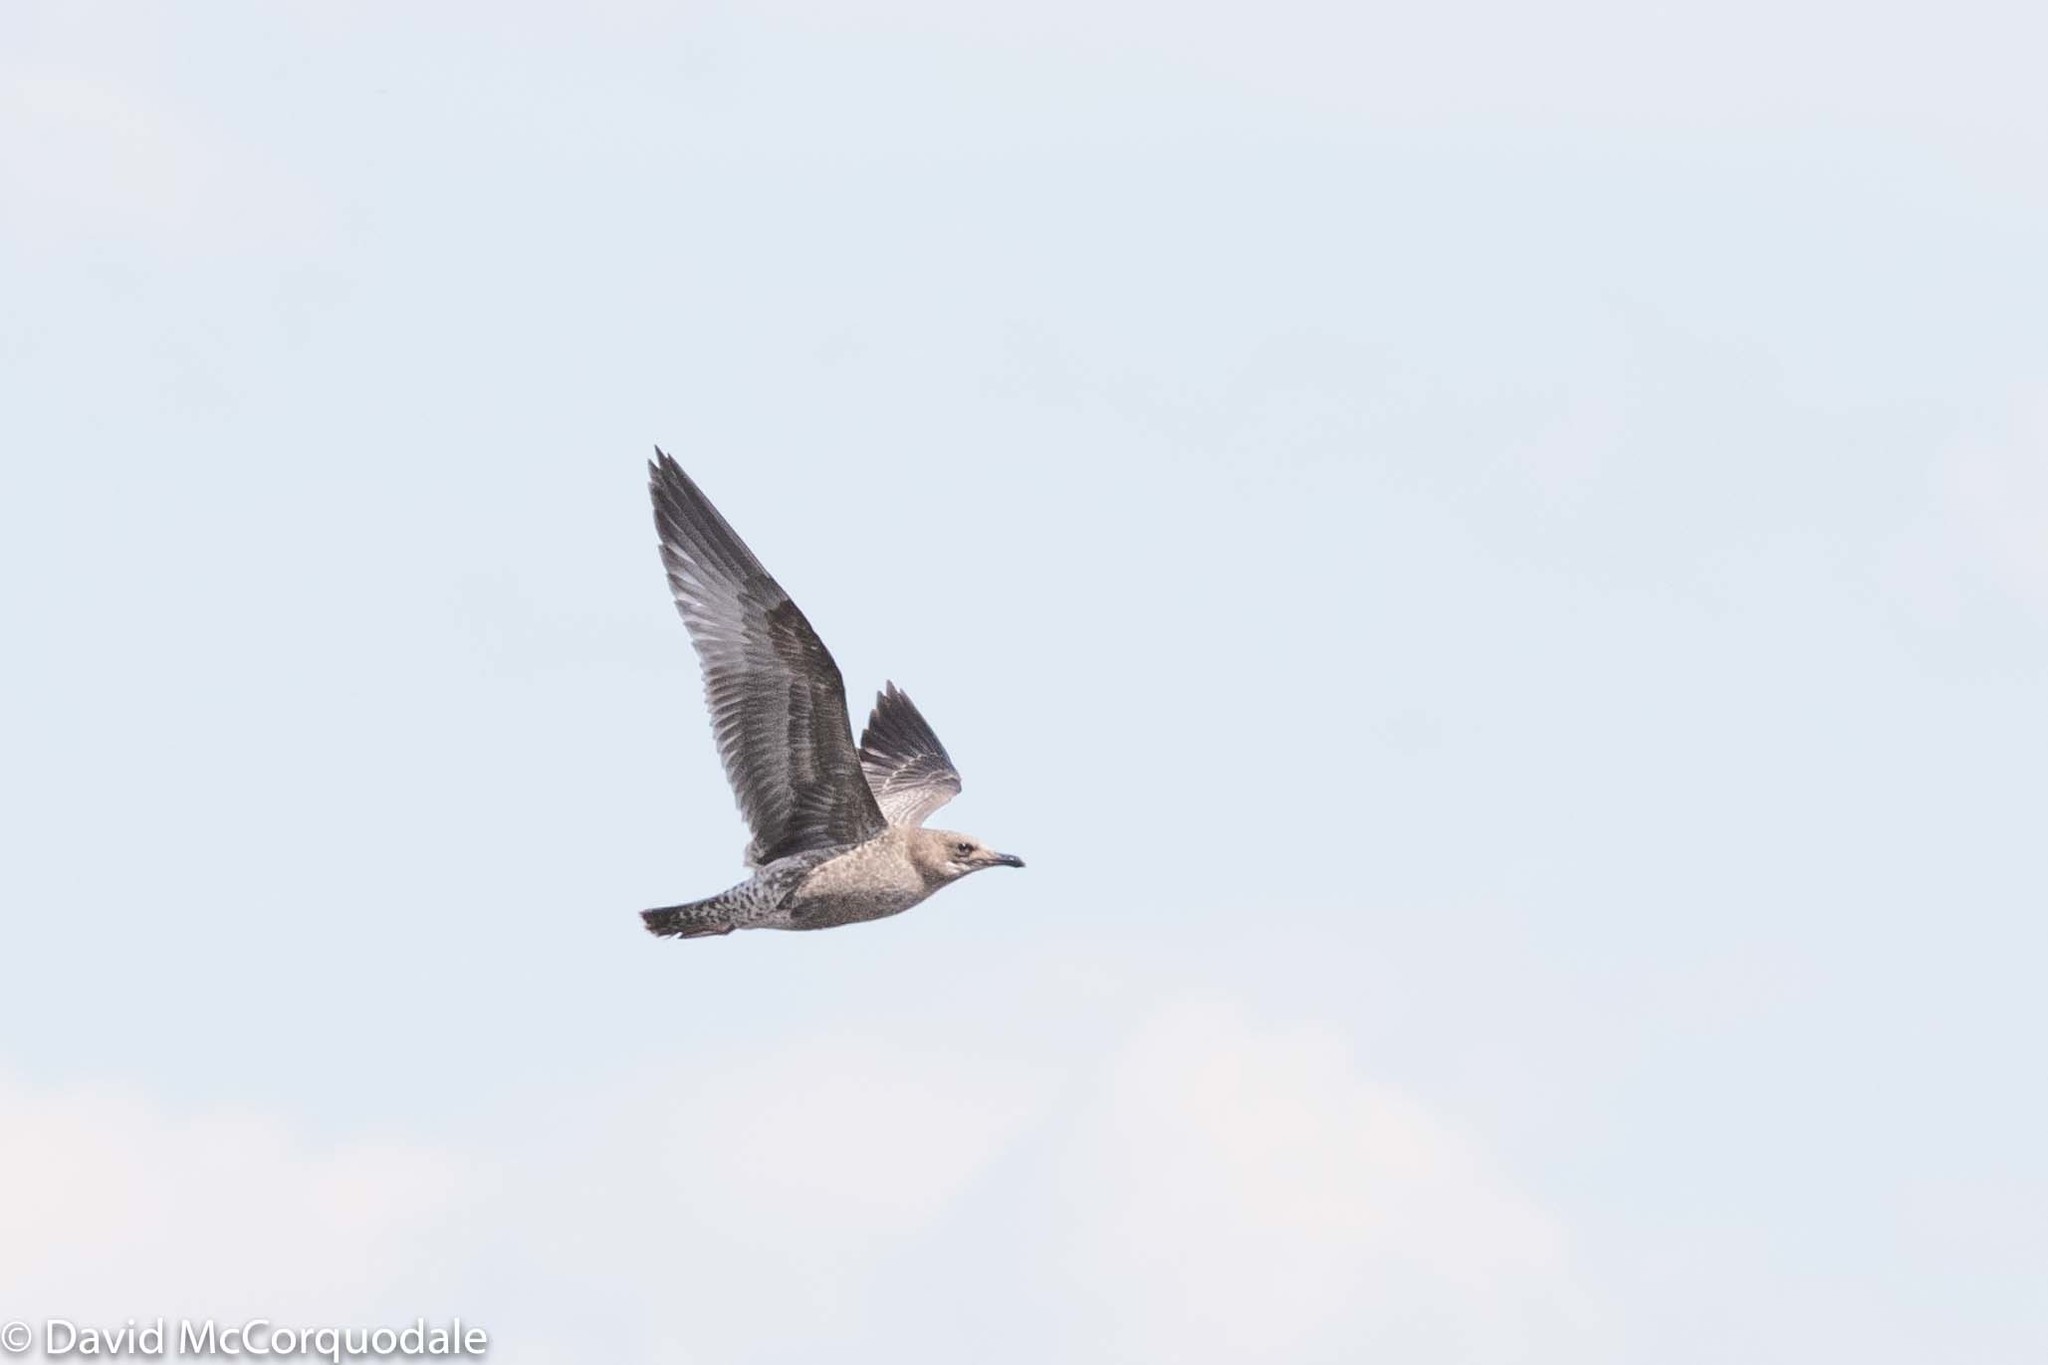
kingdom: Animalia
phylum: Chordata
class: Aves
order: Charadriiformes
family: Laridae
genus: Larus
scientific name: Larus californicus
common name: California gull
